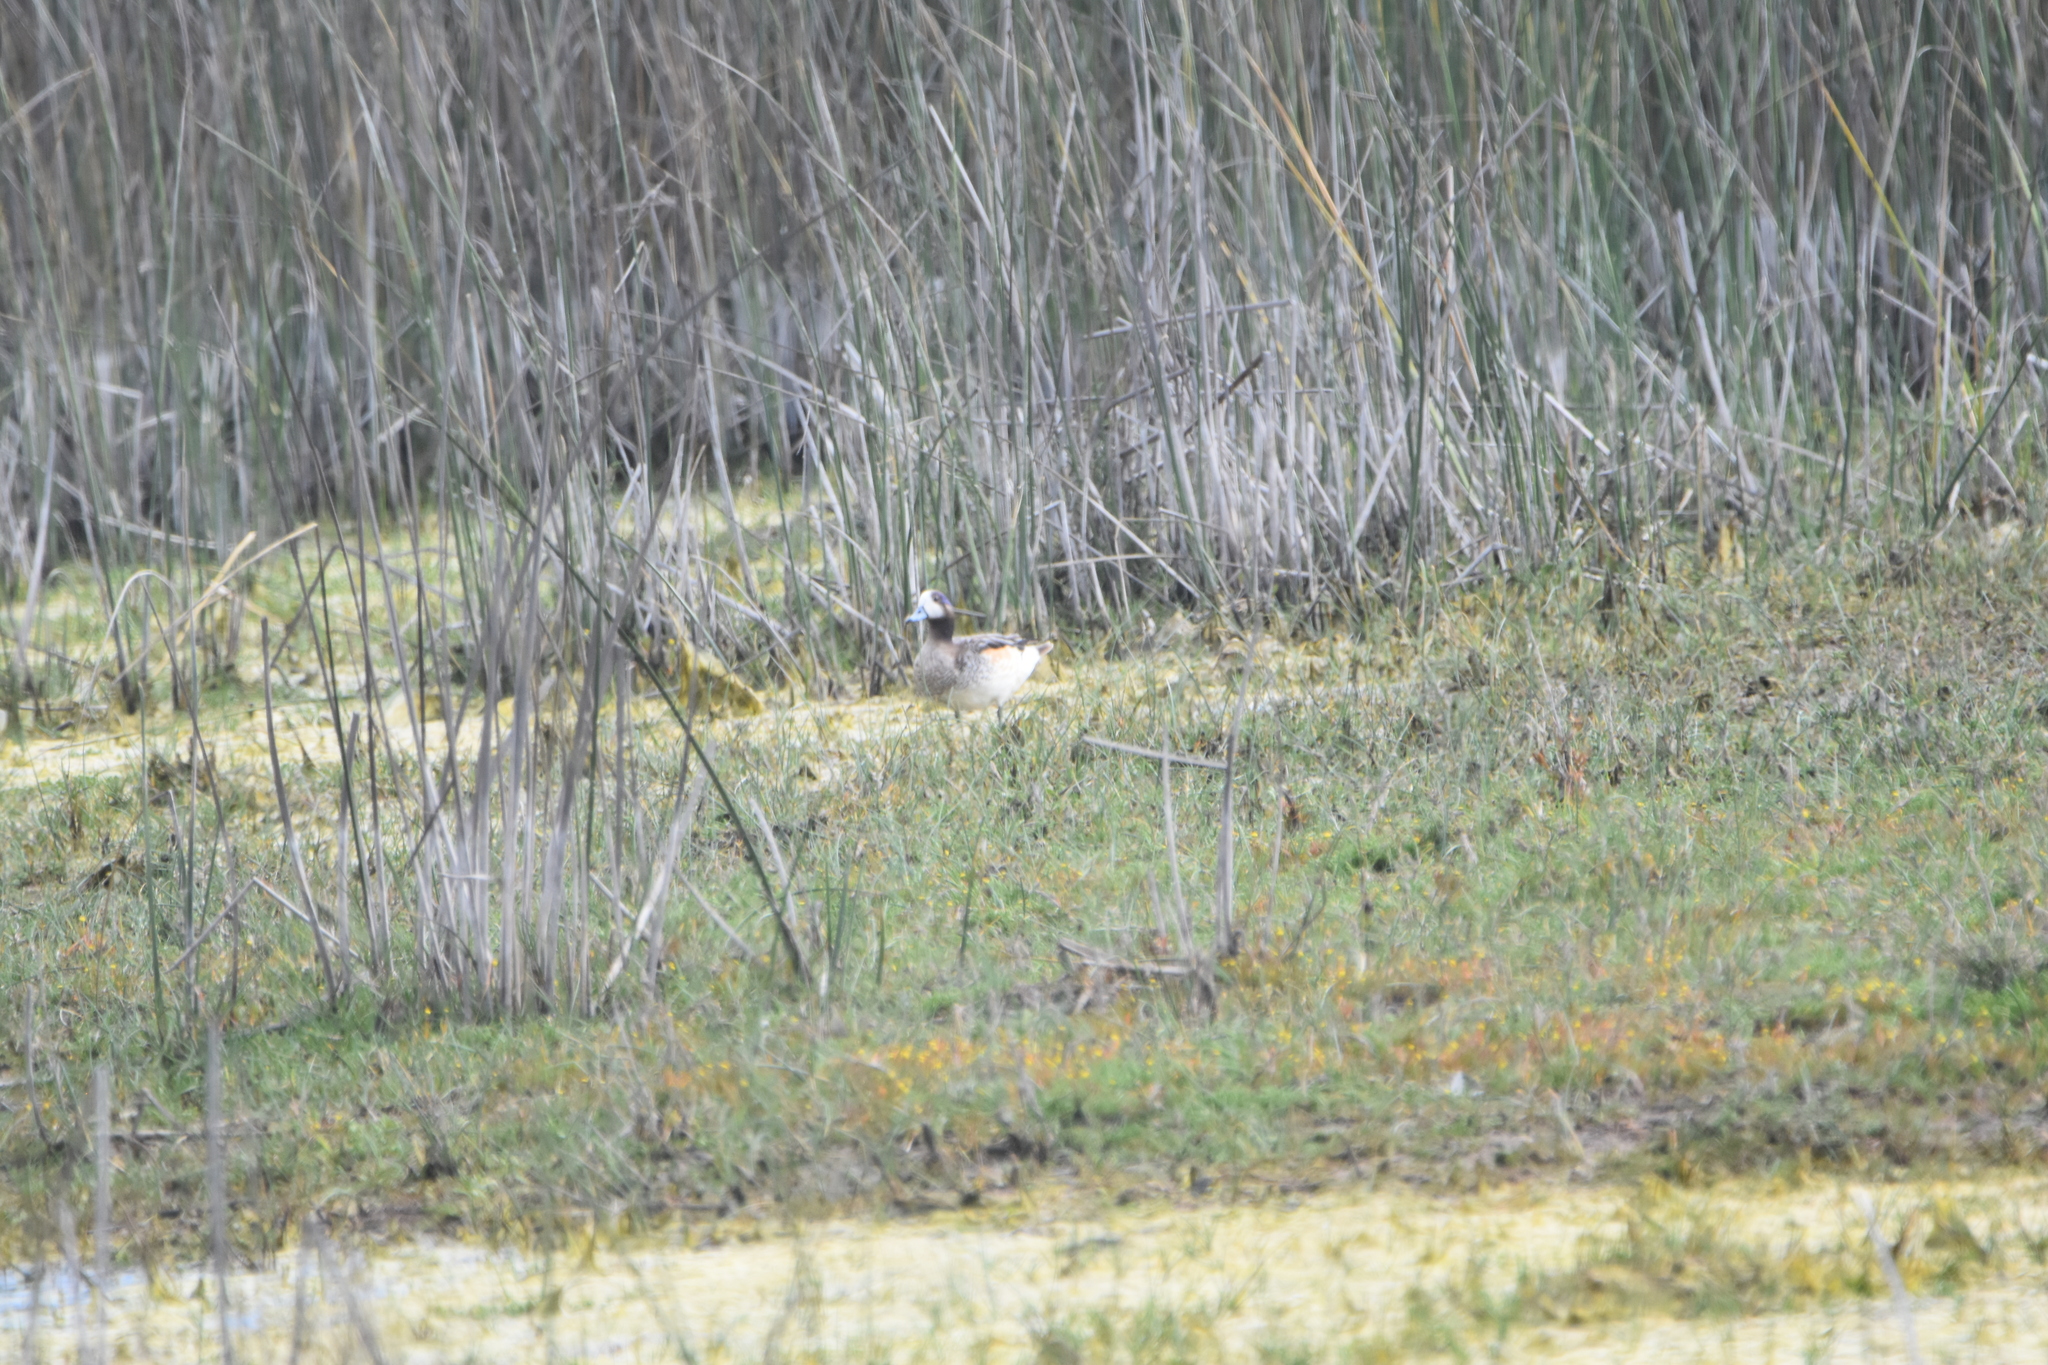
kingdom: Animalia
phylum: Chordata
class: Aves
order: Anseriformes
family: Anatidae
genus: Mareca
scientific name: Mareca sibilatrix
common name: Chiloe wigeon
